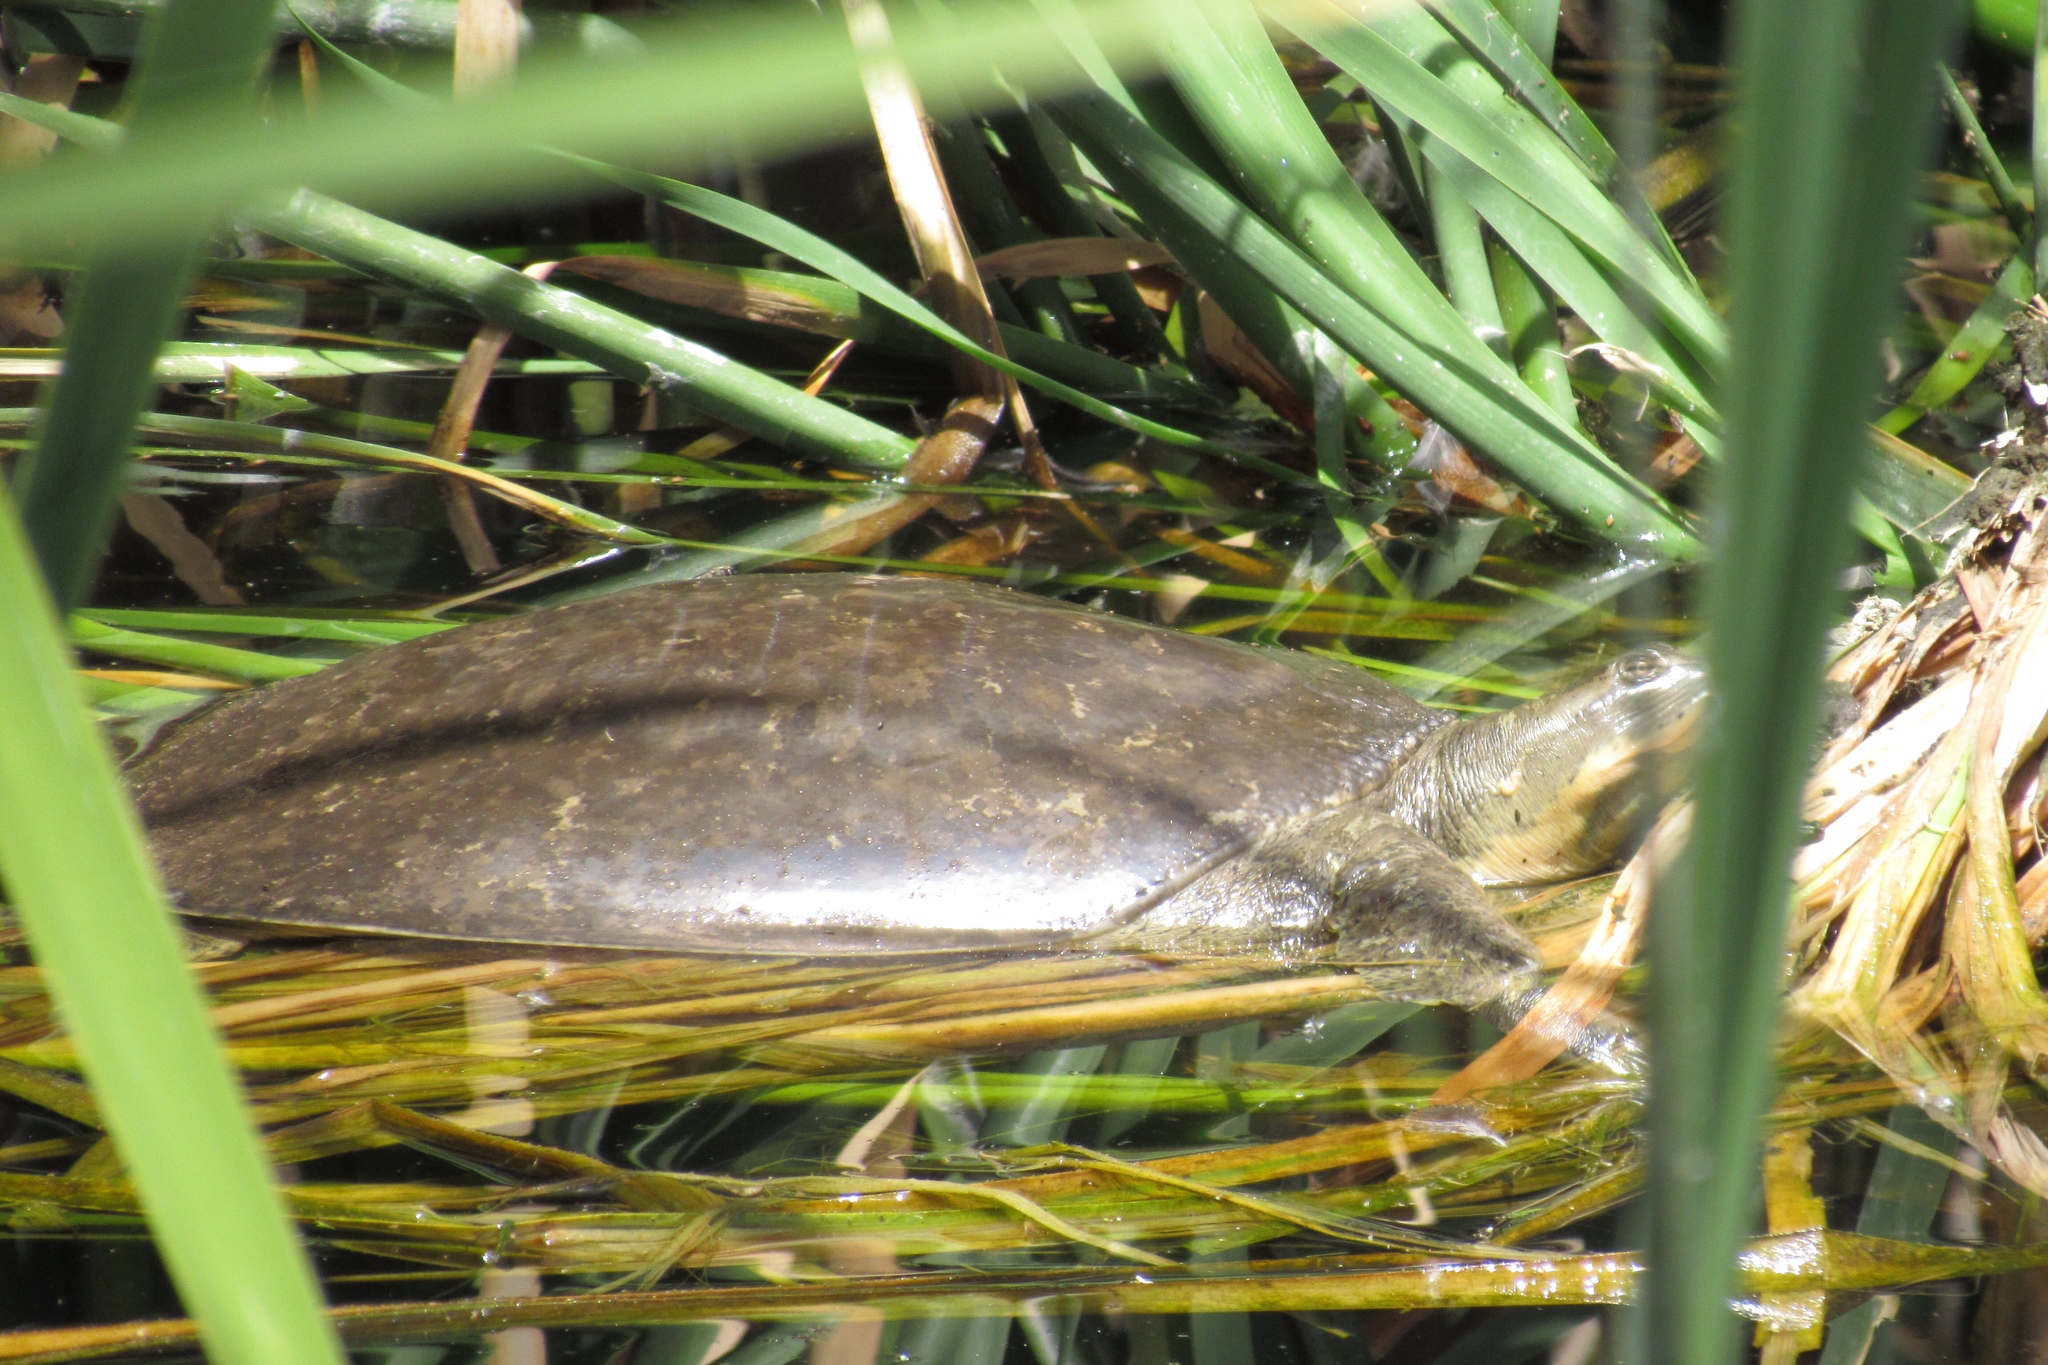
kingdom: Animalia
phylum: Chordata
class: Testudines
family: Trionychidae
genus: Apalone
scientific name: Apalone spinifera
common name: Spiny softshell turtle
